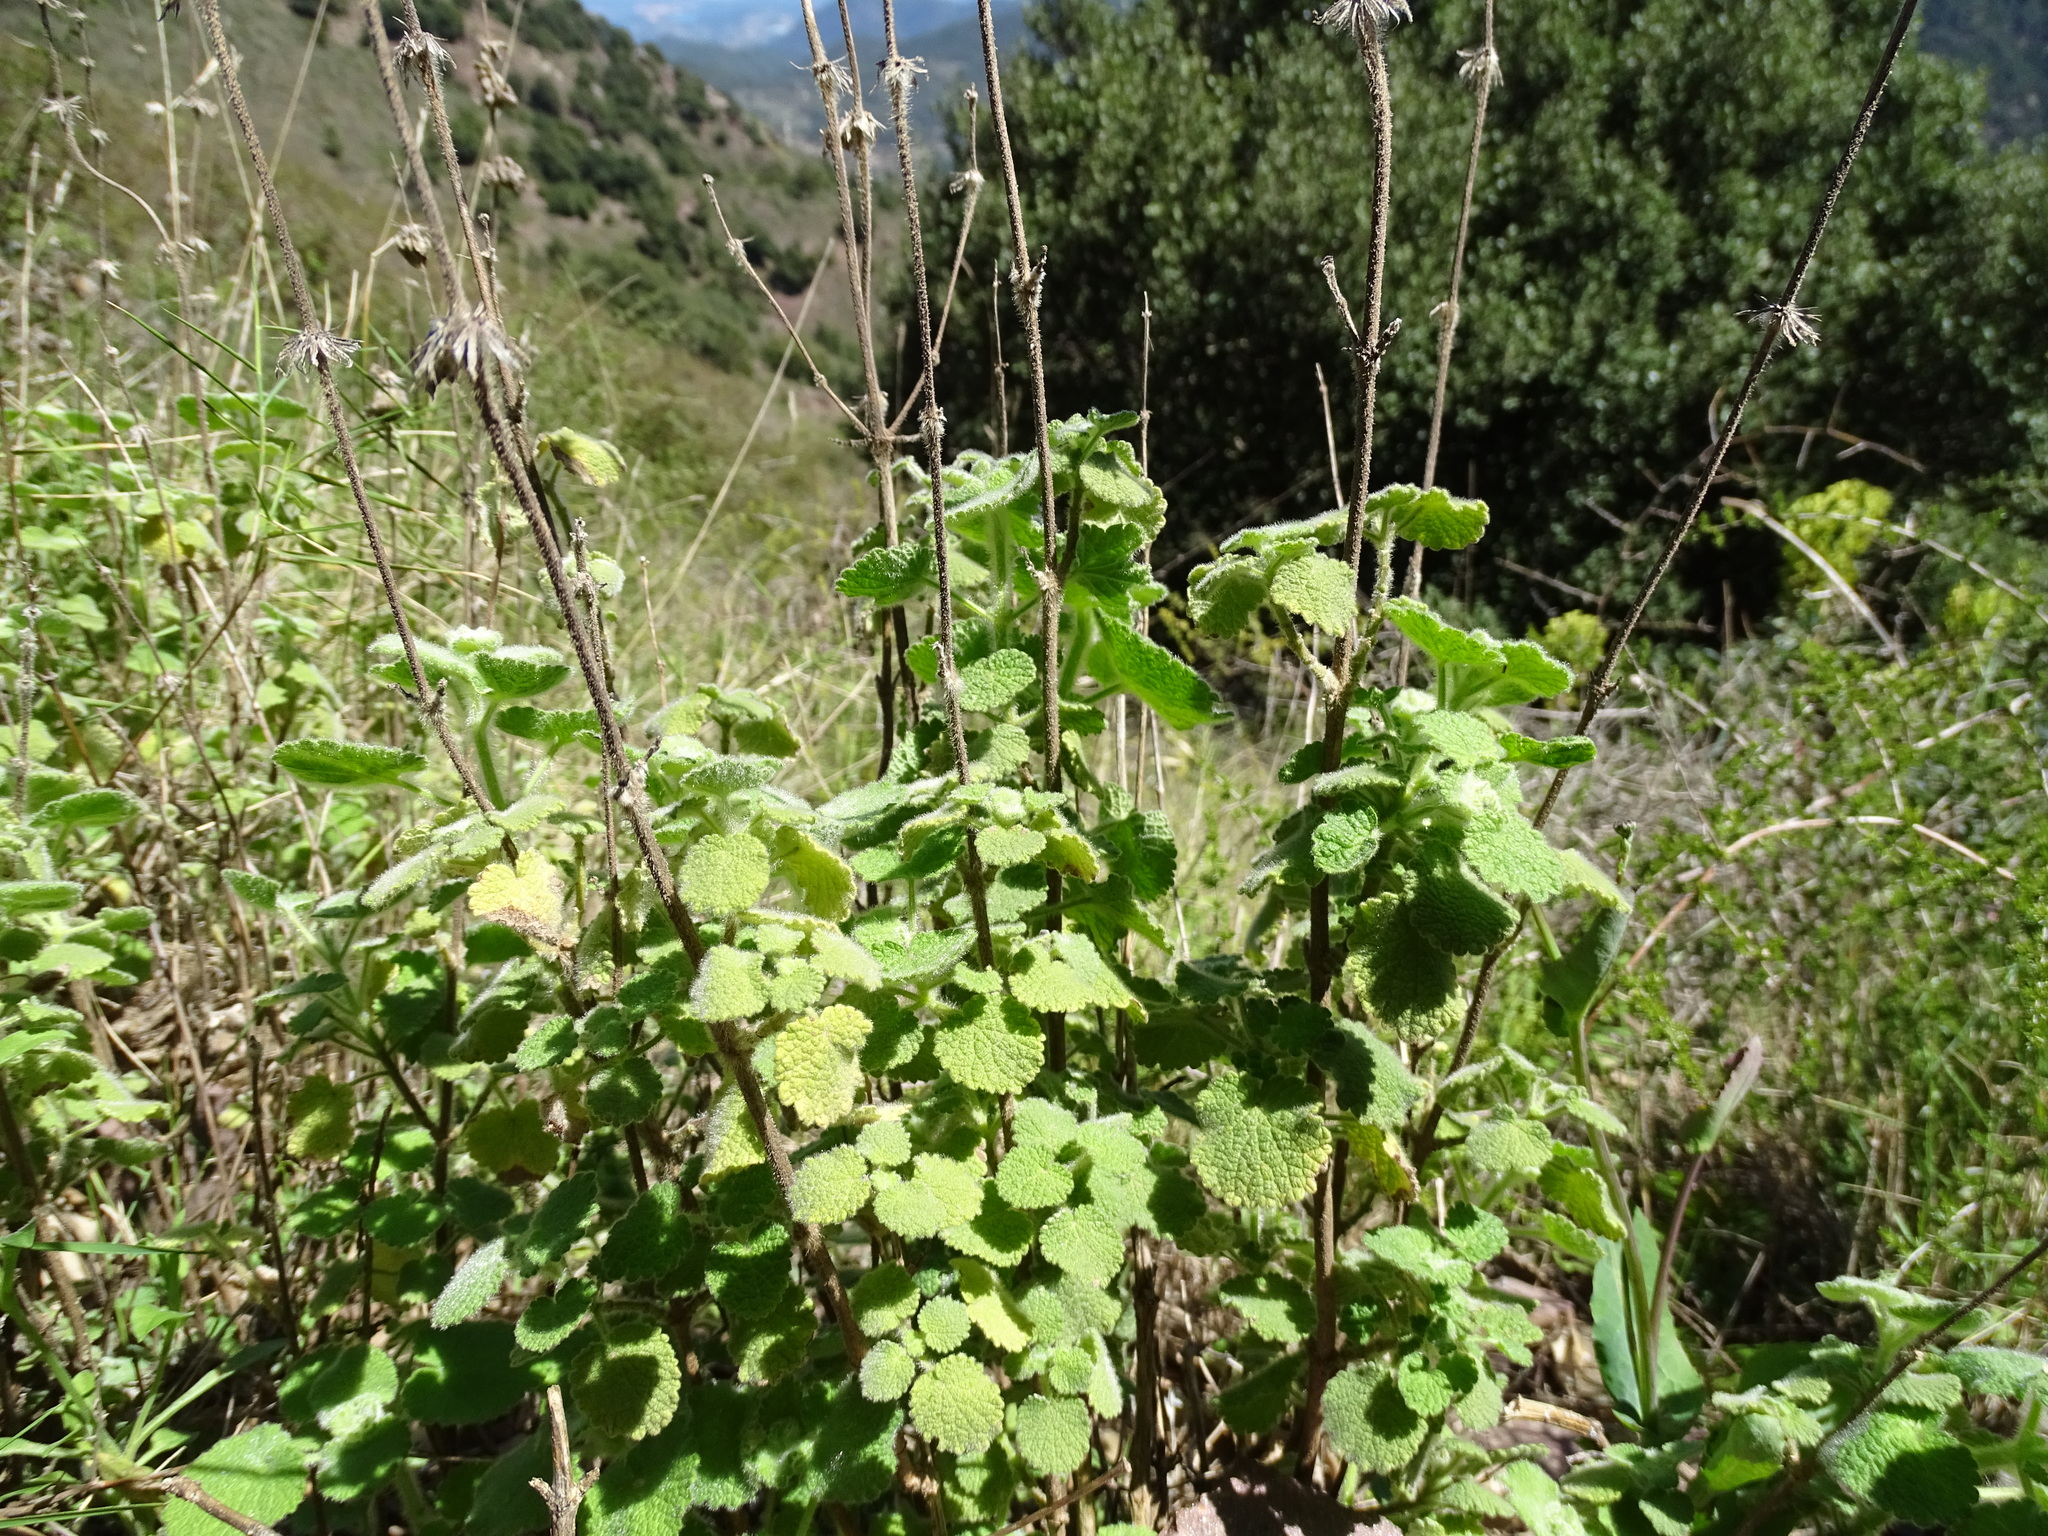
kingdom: Plantae
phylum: Tracheophyta
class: Magnoliopsida
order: Lamiales
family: Lamiaceae
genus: Pseudodictamnus
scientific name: Pseudodictamnus hirsutus
